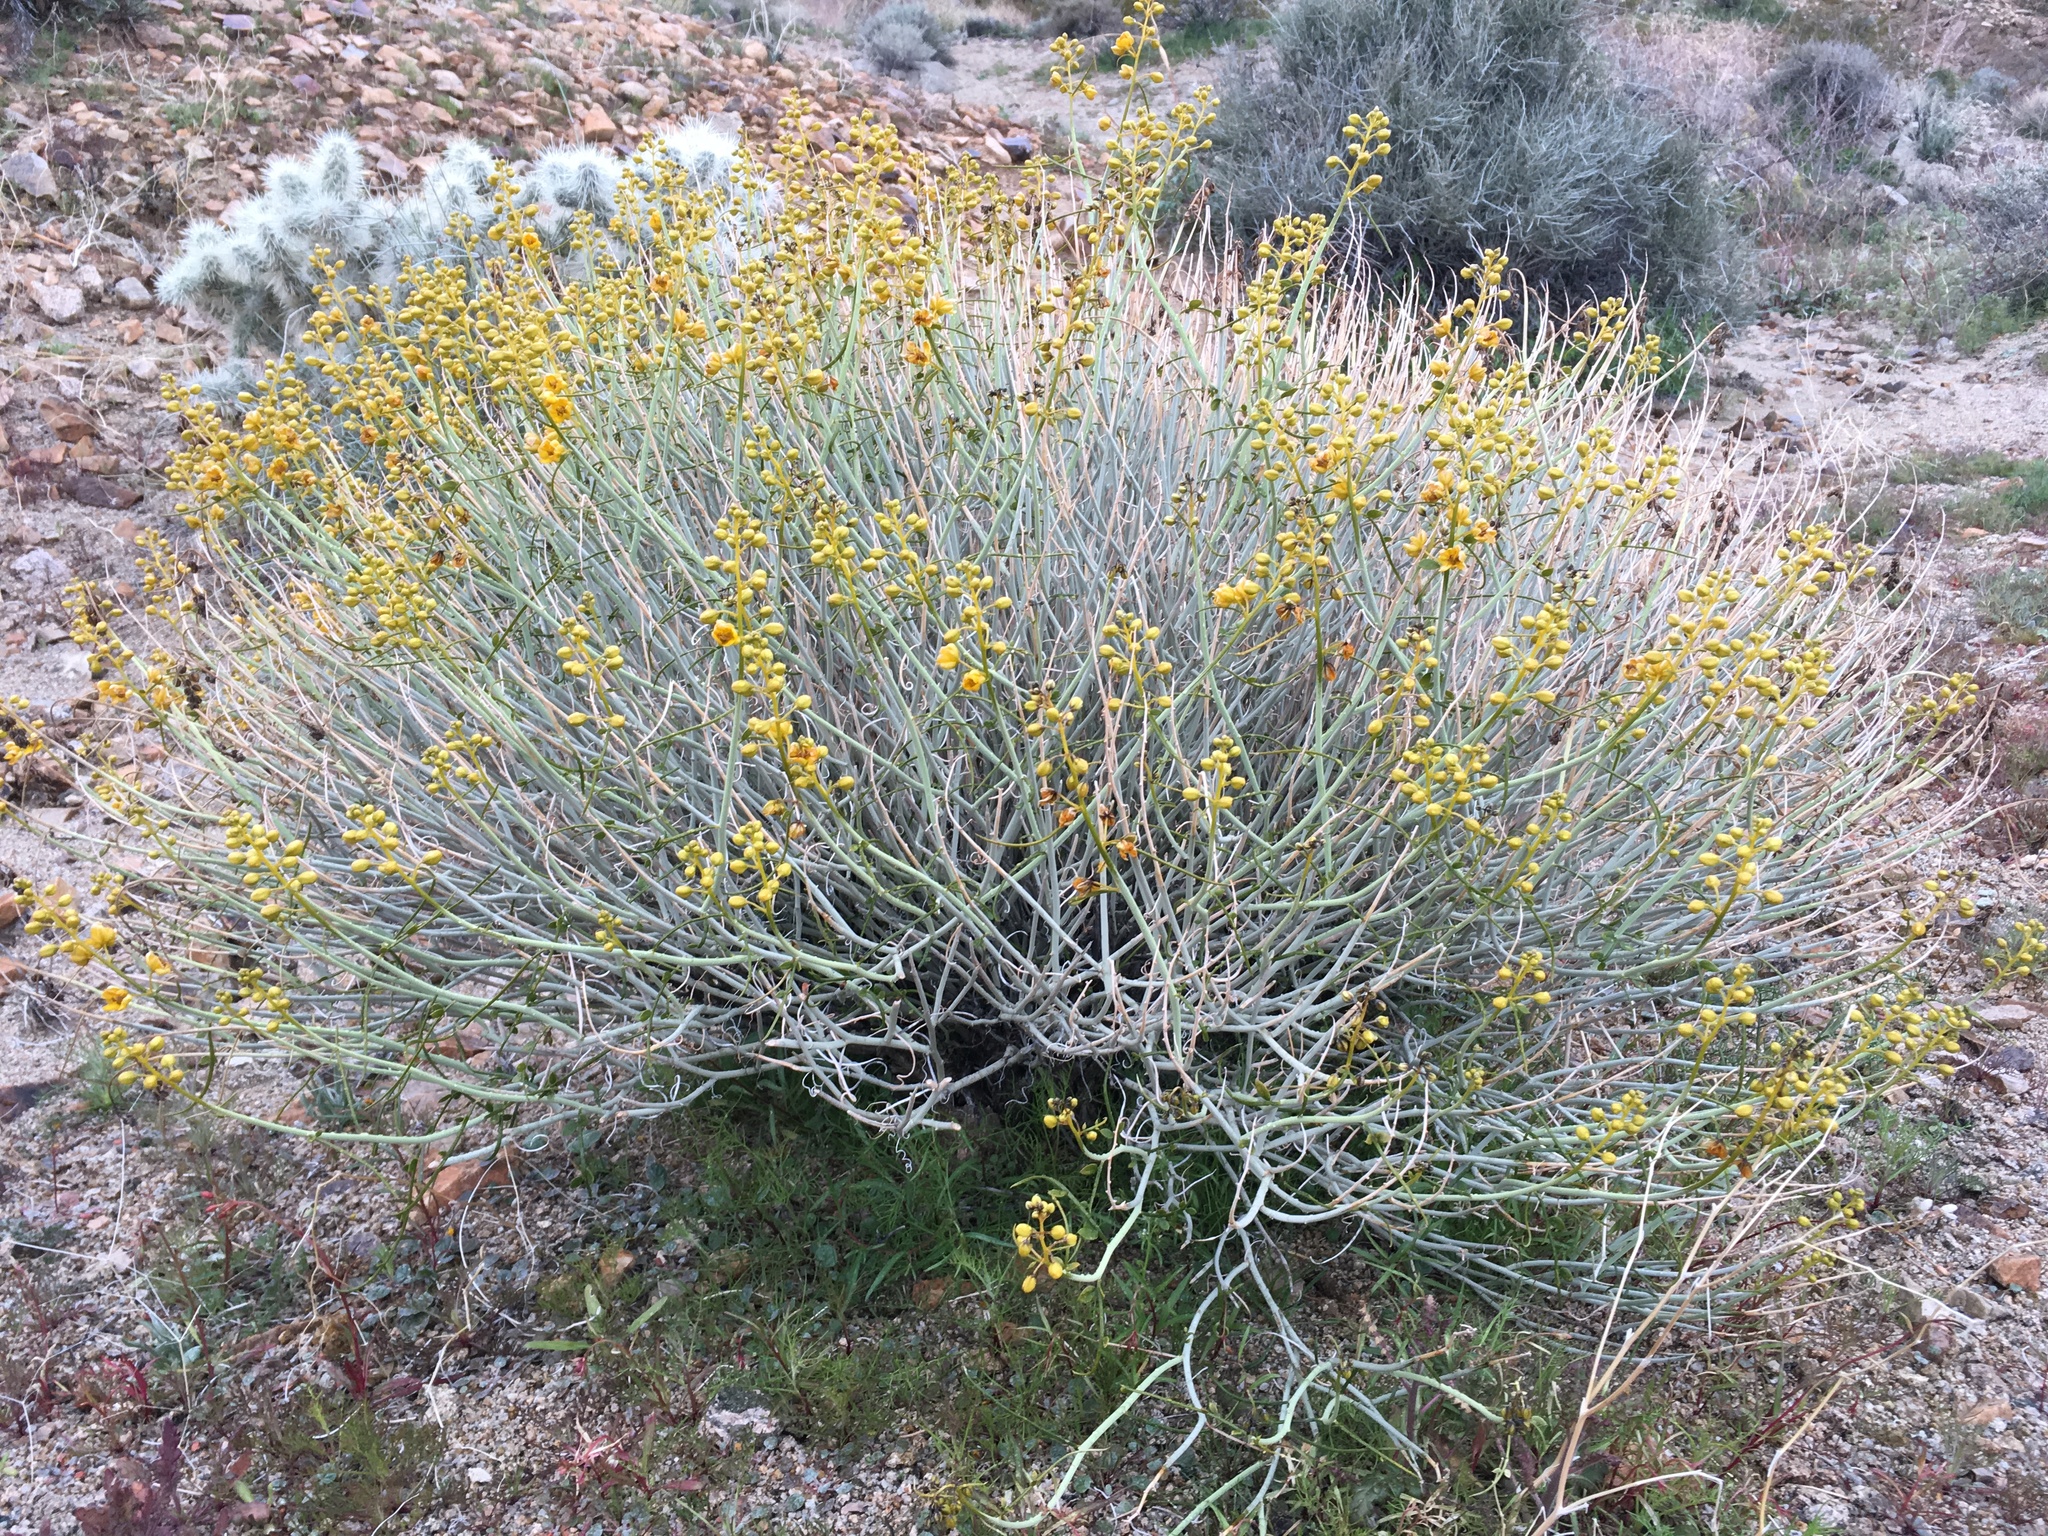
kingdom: Plantae
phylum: Tracheophyta
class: Magnoliopsida
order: Fabales
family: Fabaceae
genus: Senna
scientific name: Senna armata
